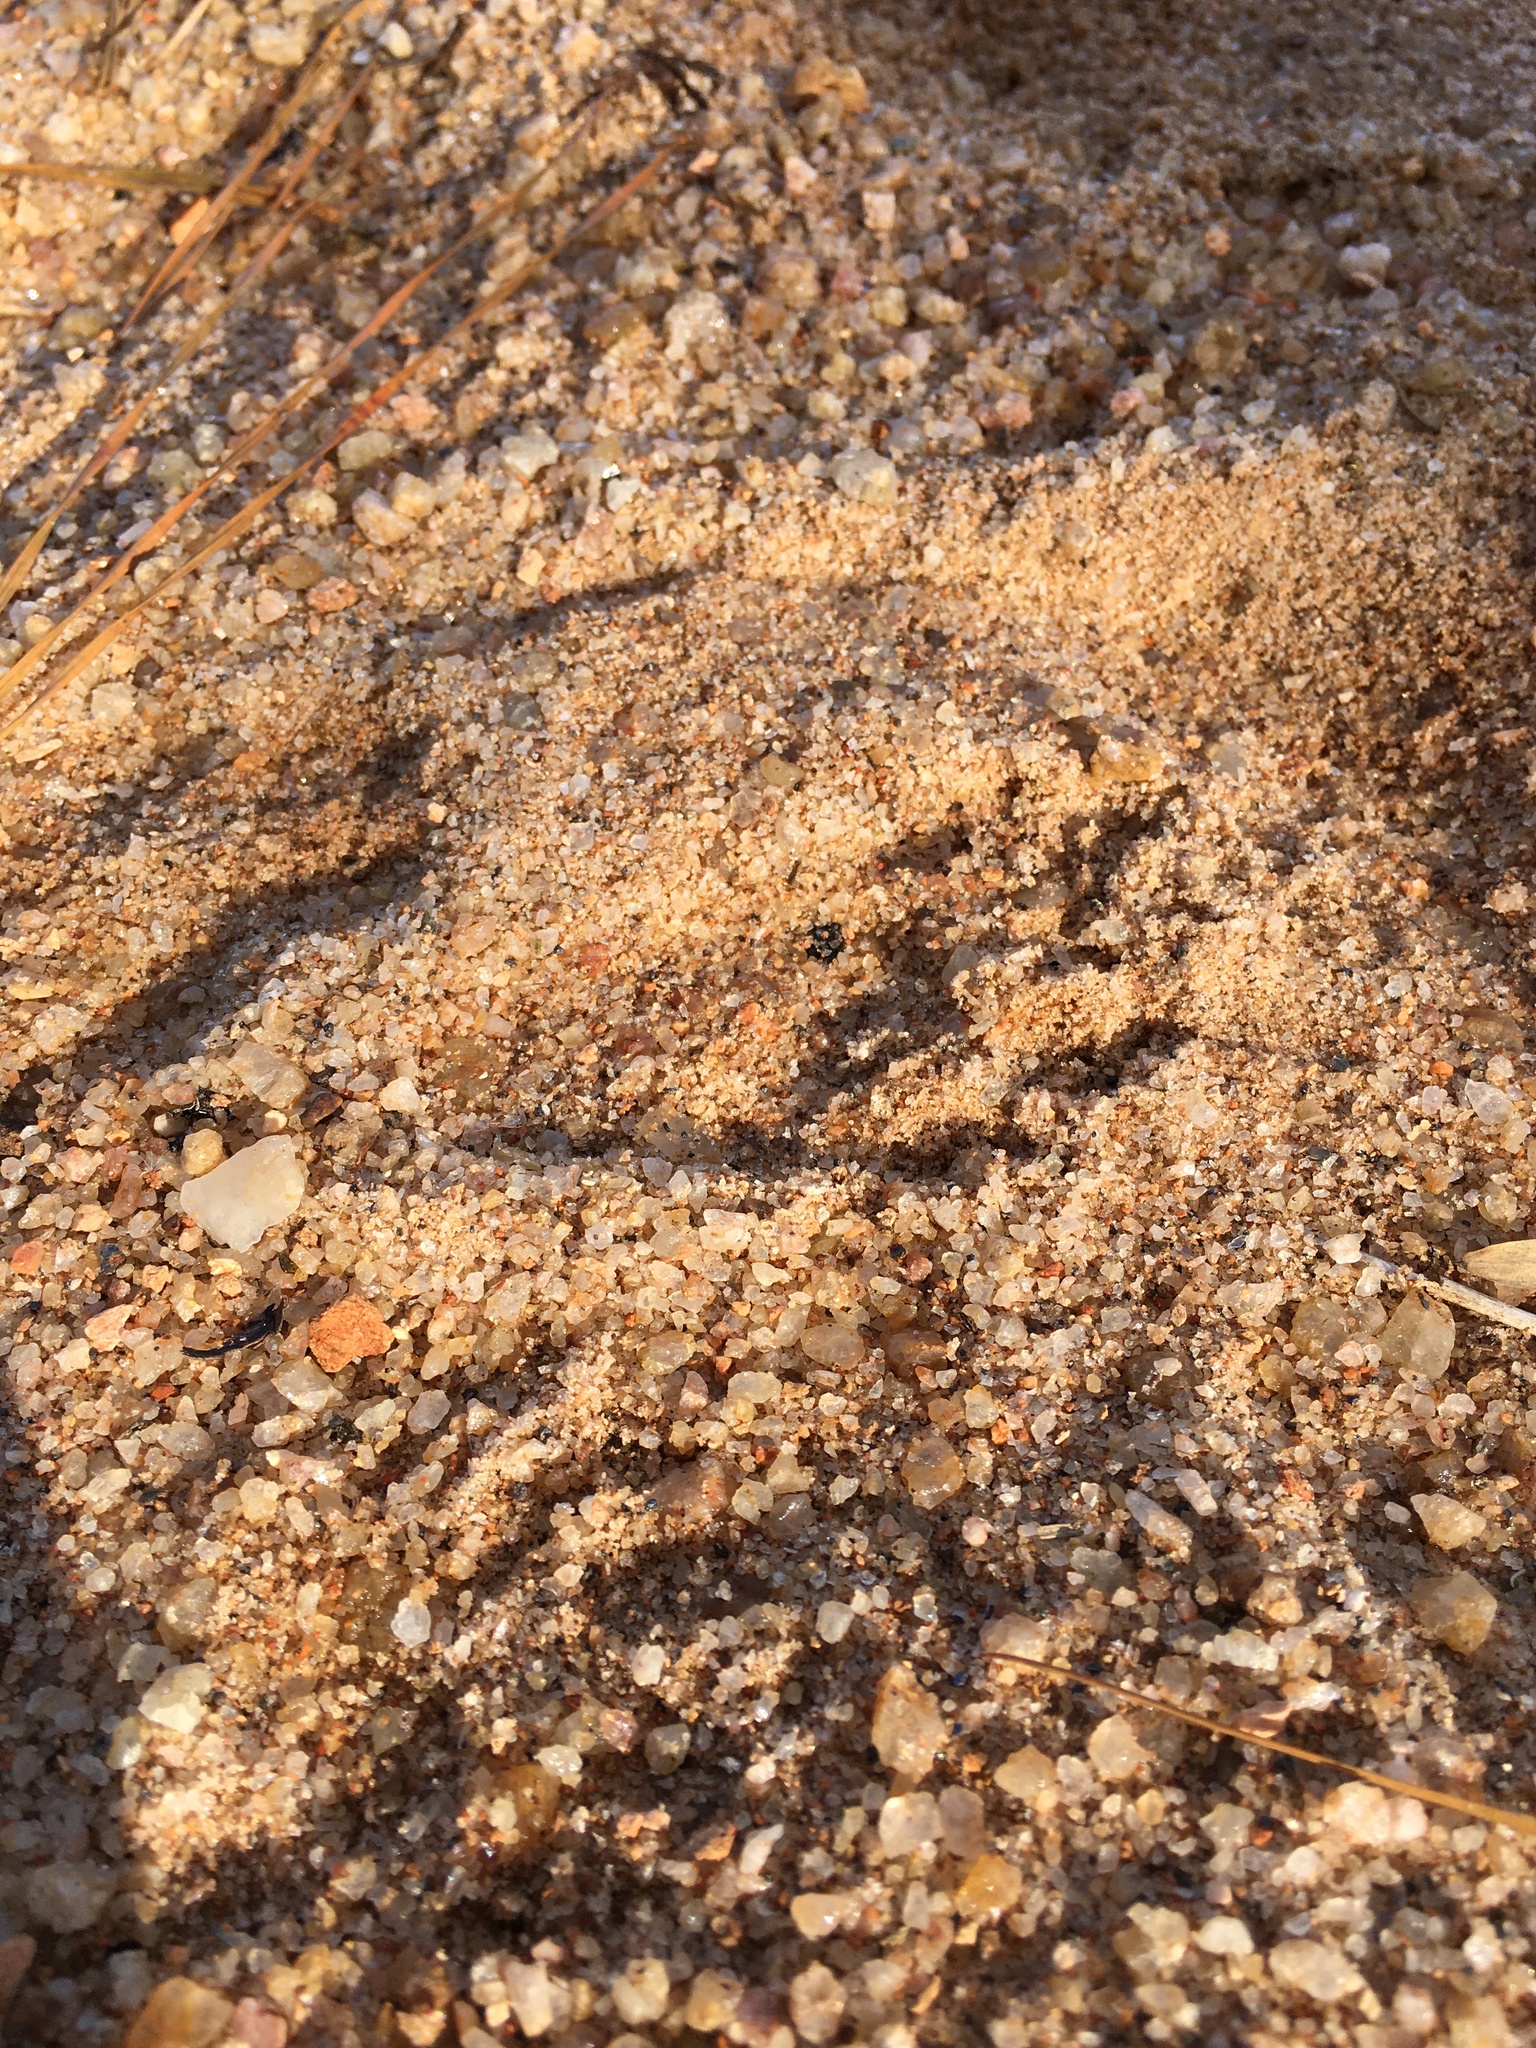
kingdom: Animalia
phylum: Chordata
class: Mammalia
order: Carnivora
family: Procyonidae
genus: Procyon
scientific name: Procyon lotor
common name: Raccoon
